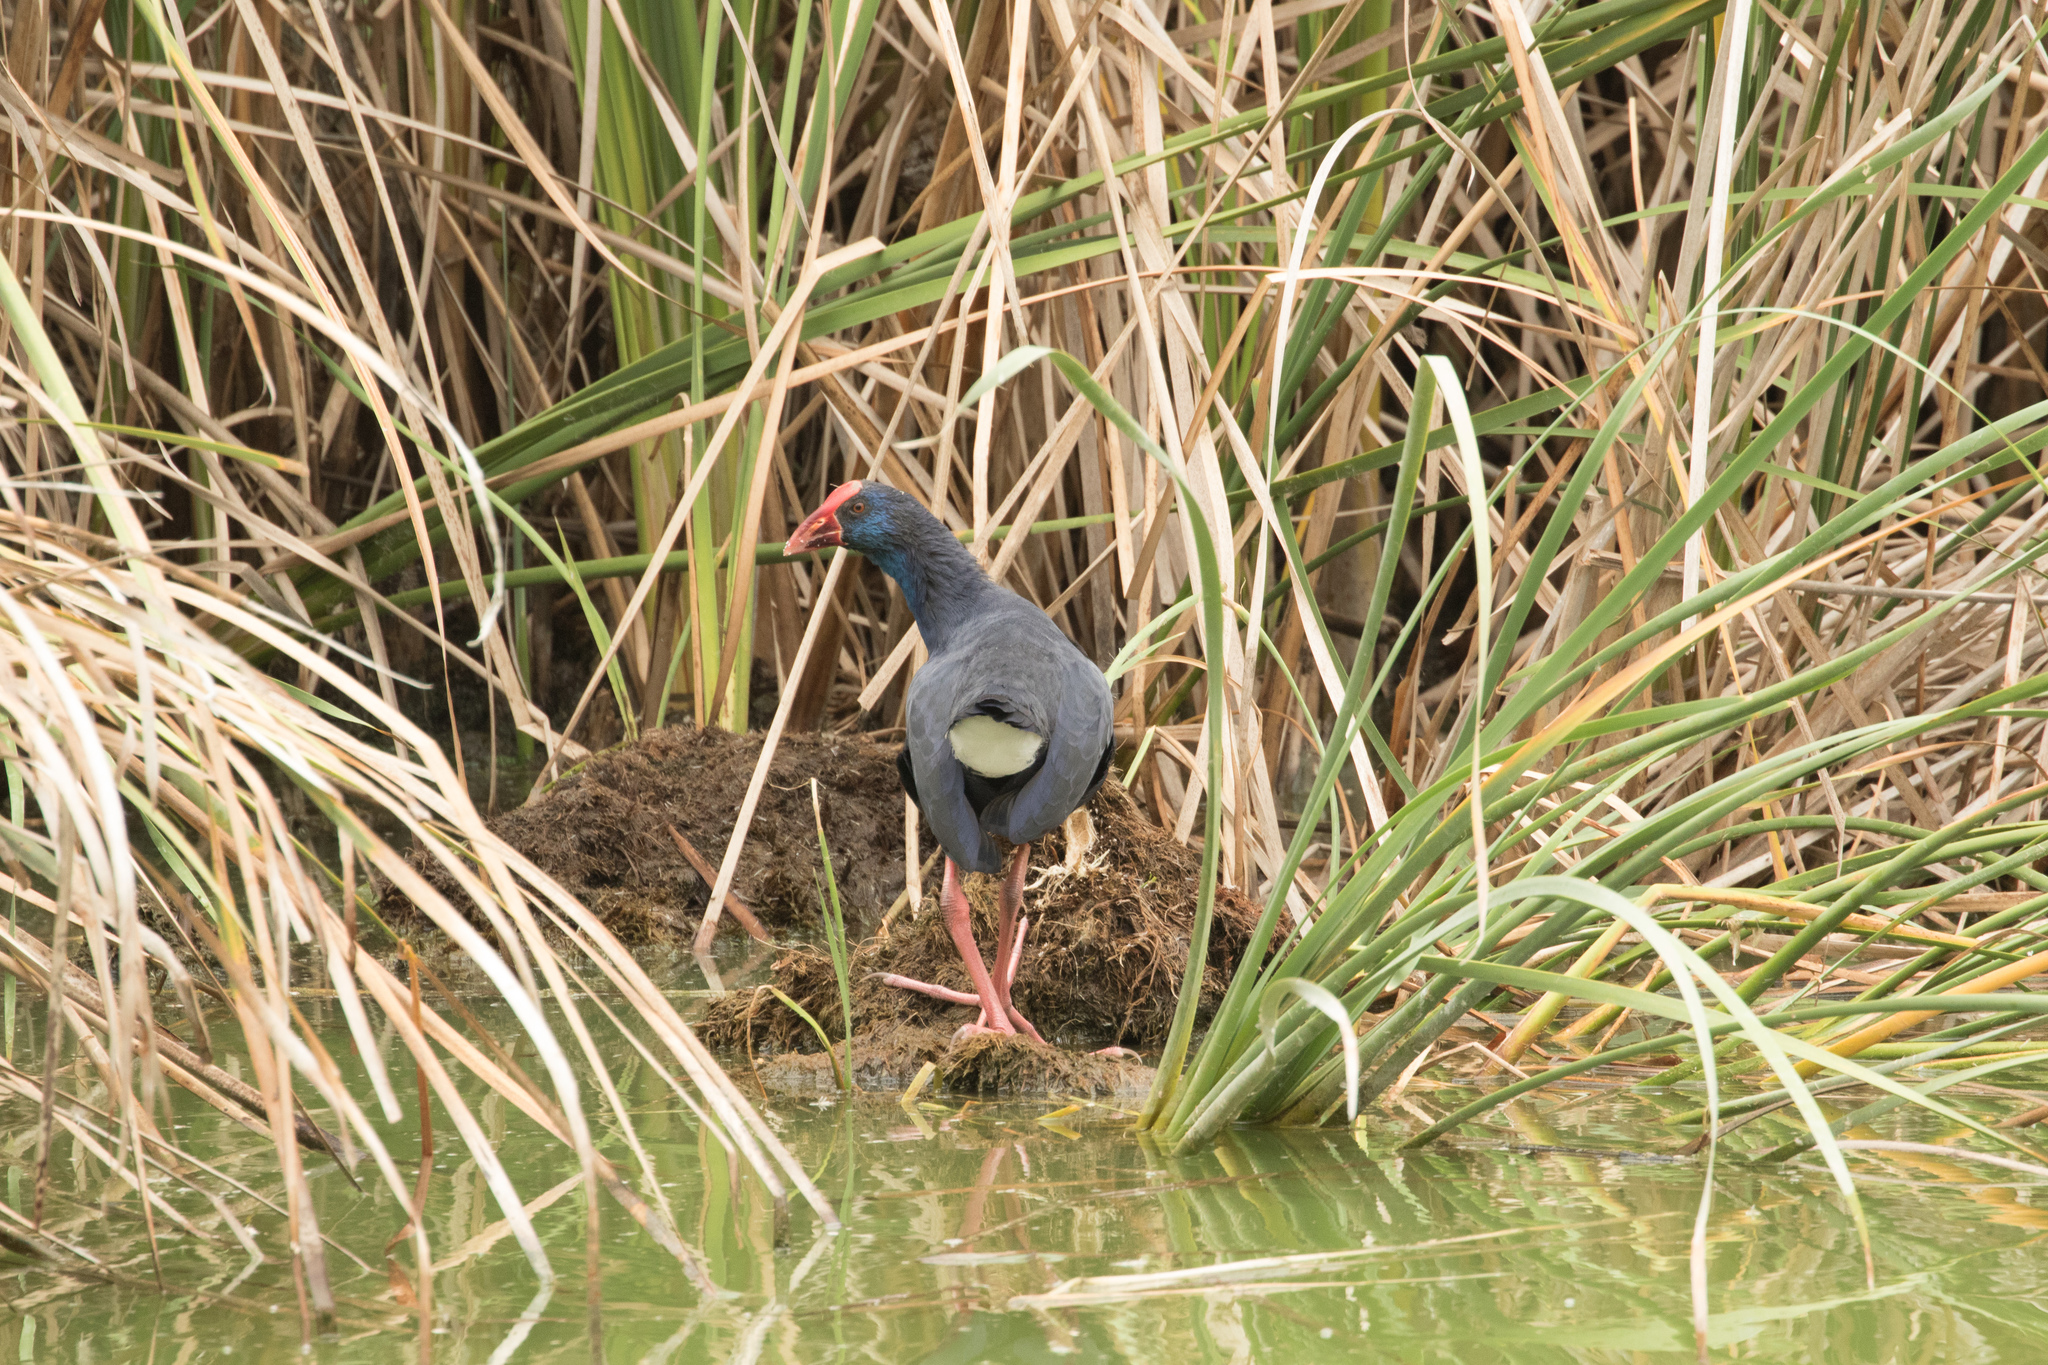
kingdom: Animalia
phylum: Chordata
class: Aves
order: Gruiformes
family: Rallidae
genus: Porphyrio
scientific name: Porphyrio porphyrio
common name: Purple swamphen
